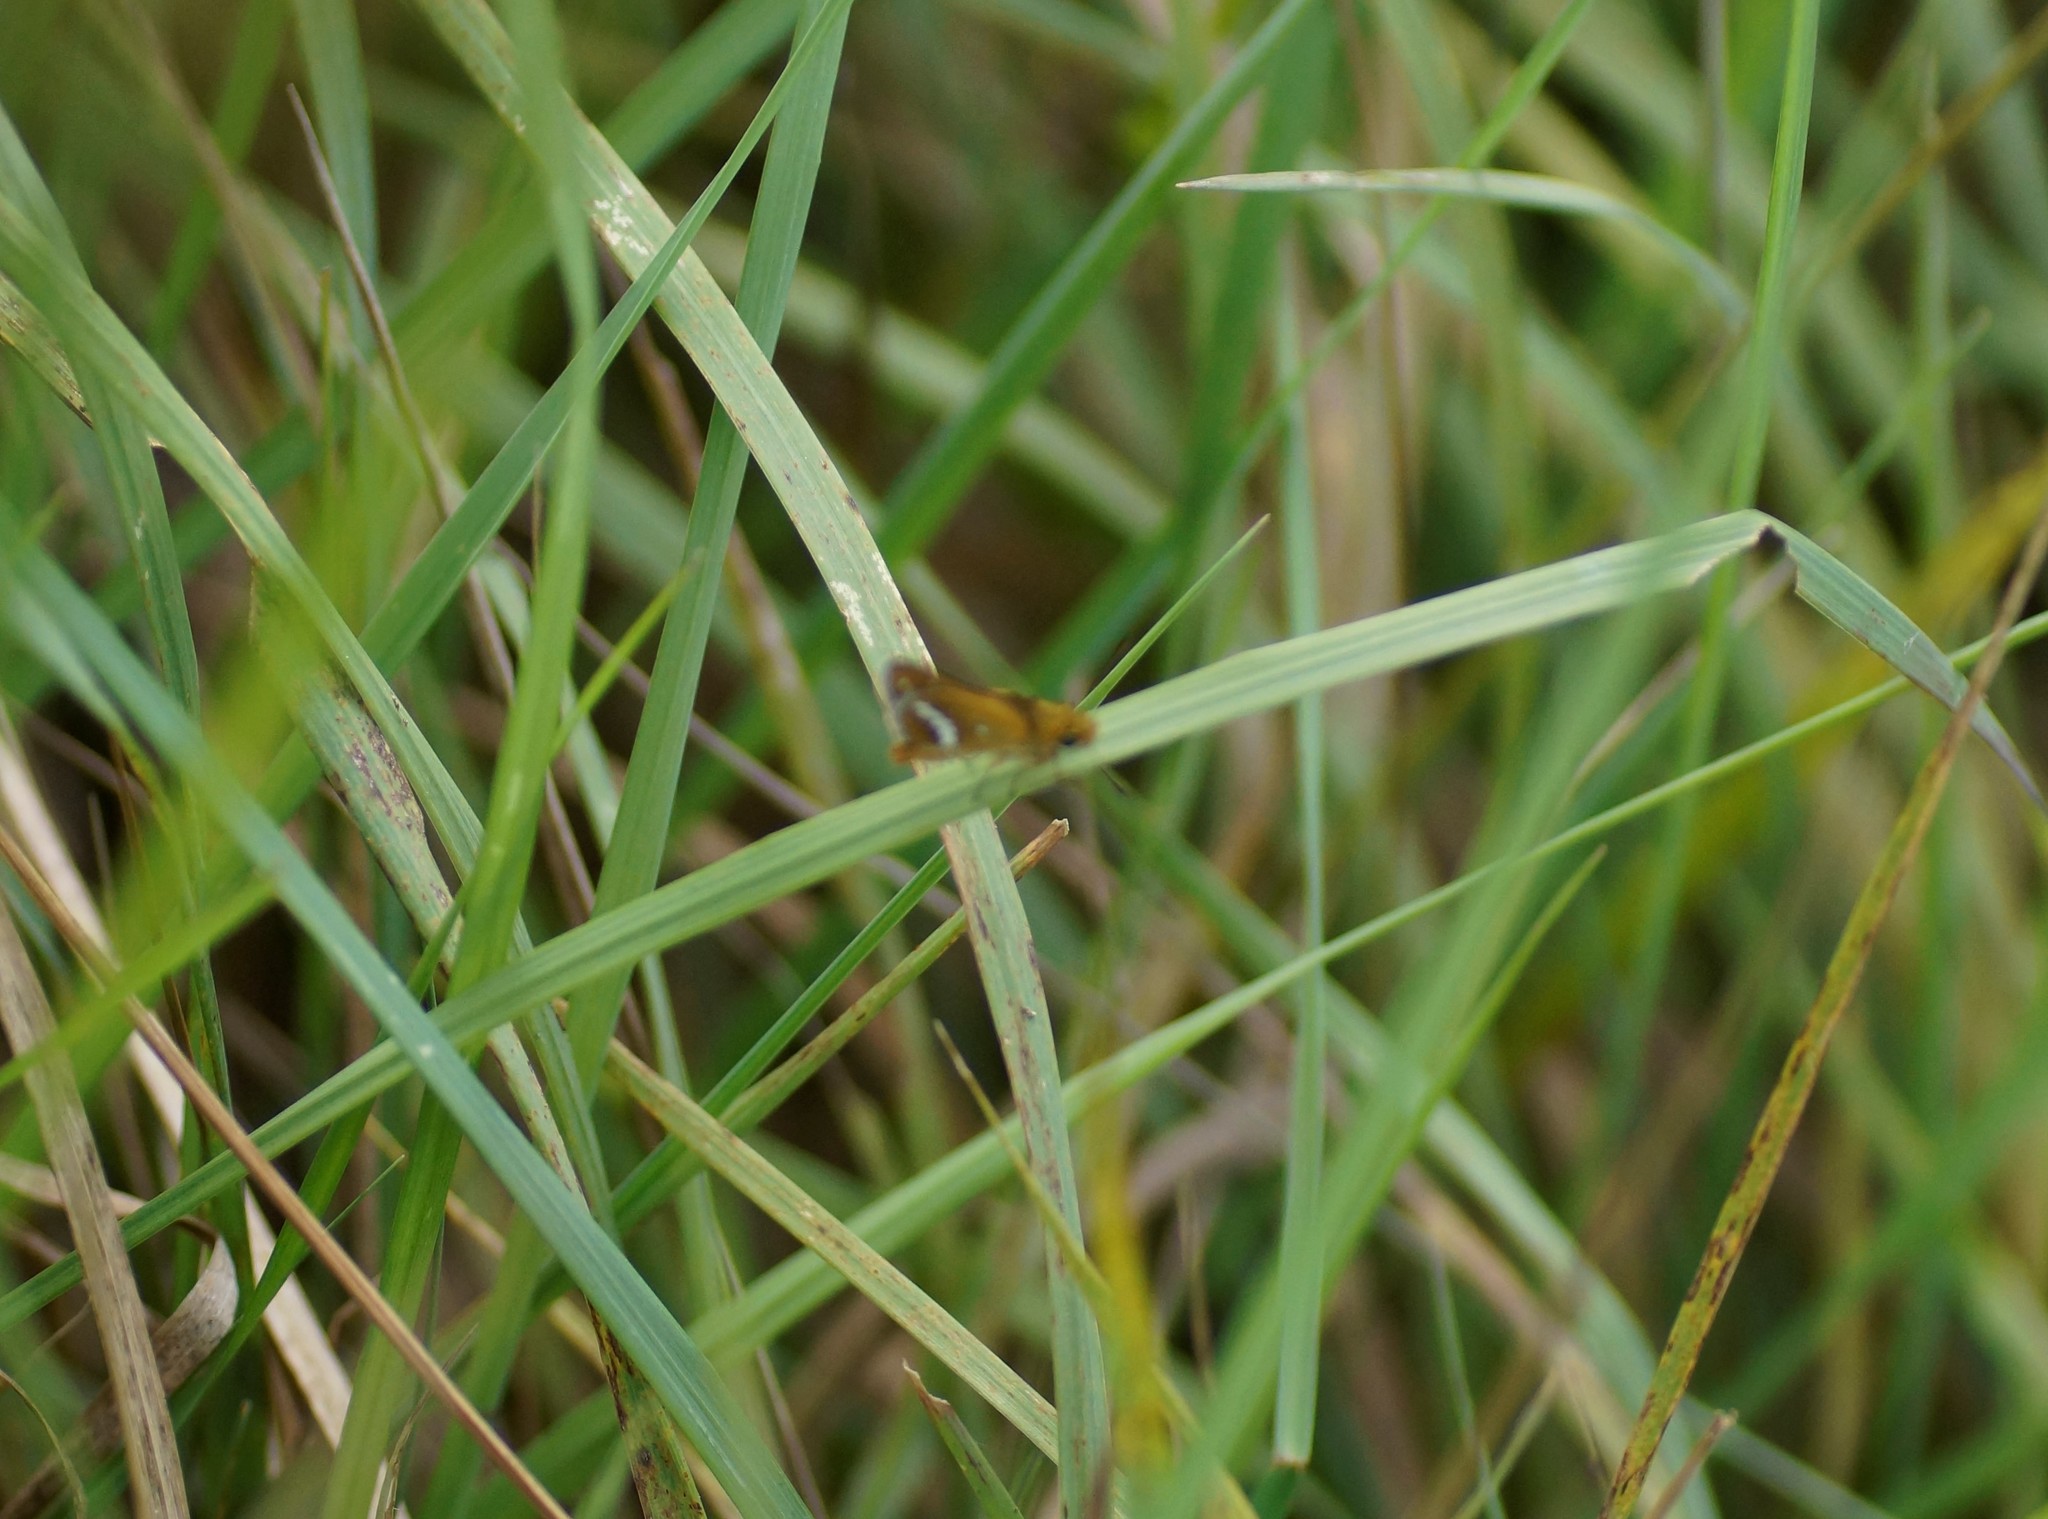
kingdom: Animalia
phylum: Arthropoda
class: Insecta
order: Lepidoptera
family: Hesperiidae
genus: Taractrocera
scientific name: Taractrocera papyria
